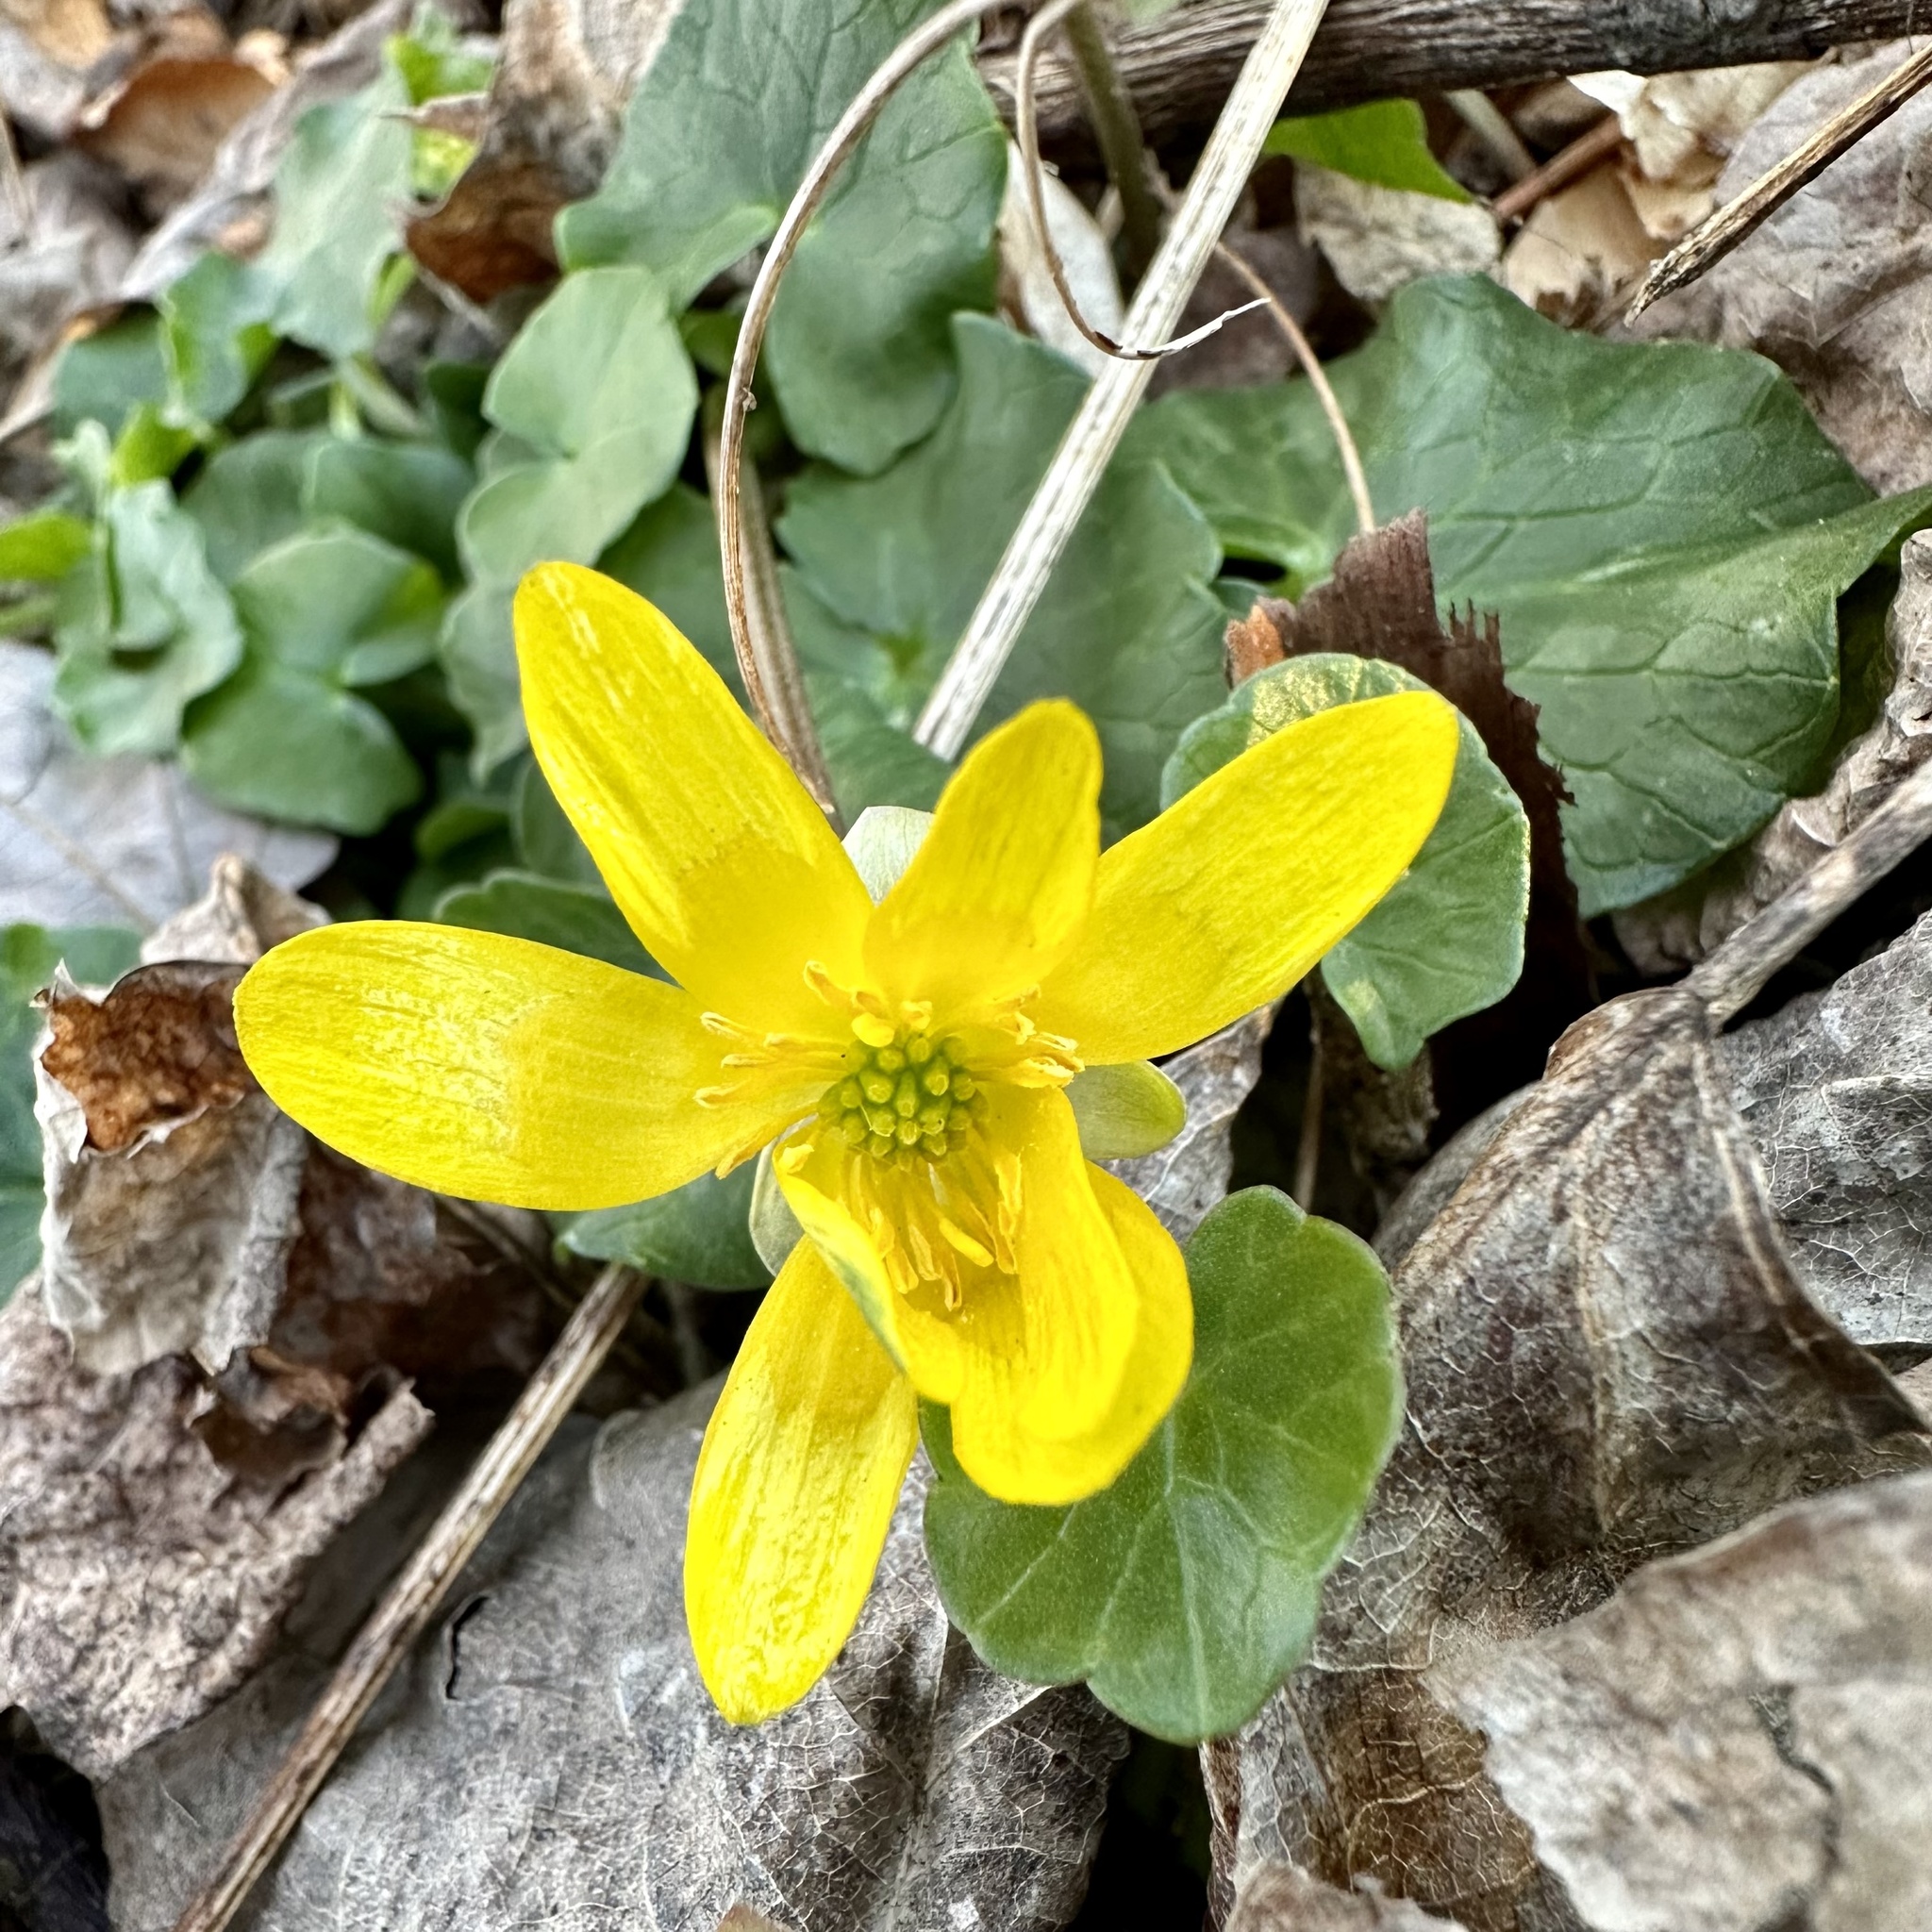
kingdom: Plantae
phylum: Tracheophyta
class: Magnoliopsida
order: Ranunculales
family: Ranunculaceae
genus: Ficaria
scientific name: Ficaria verna
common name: Lesser celandine
